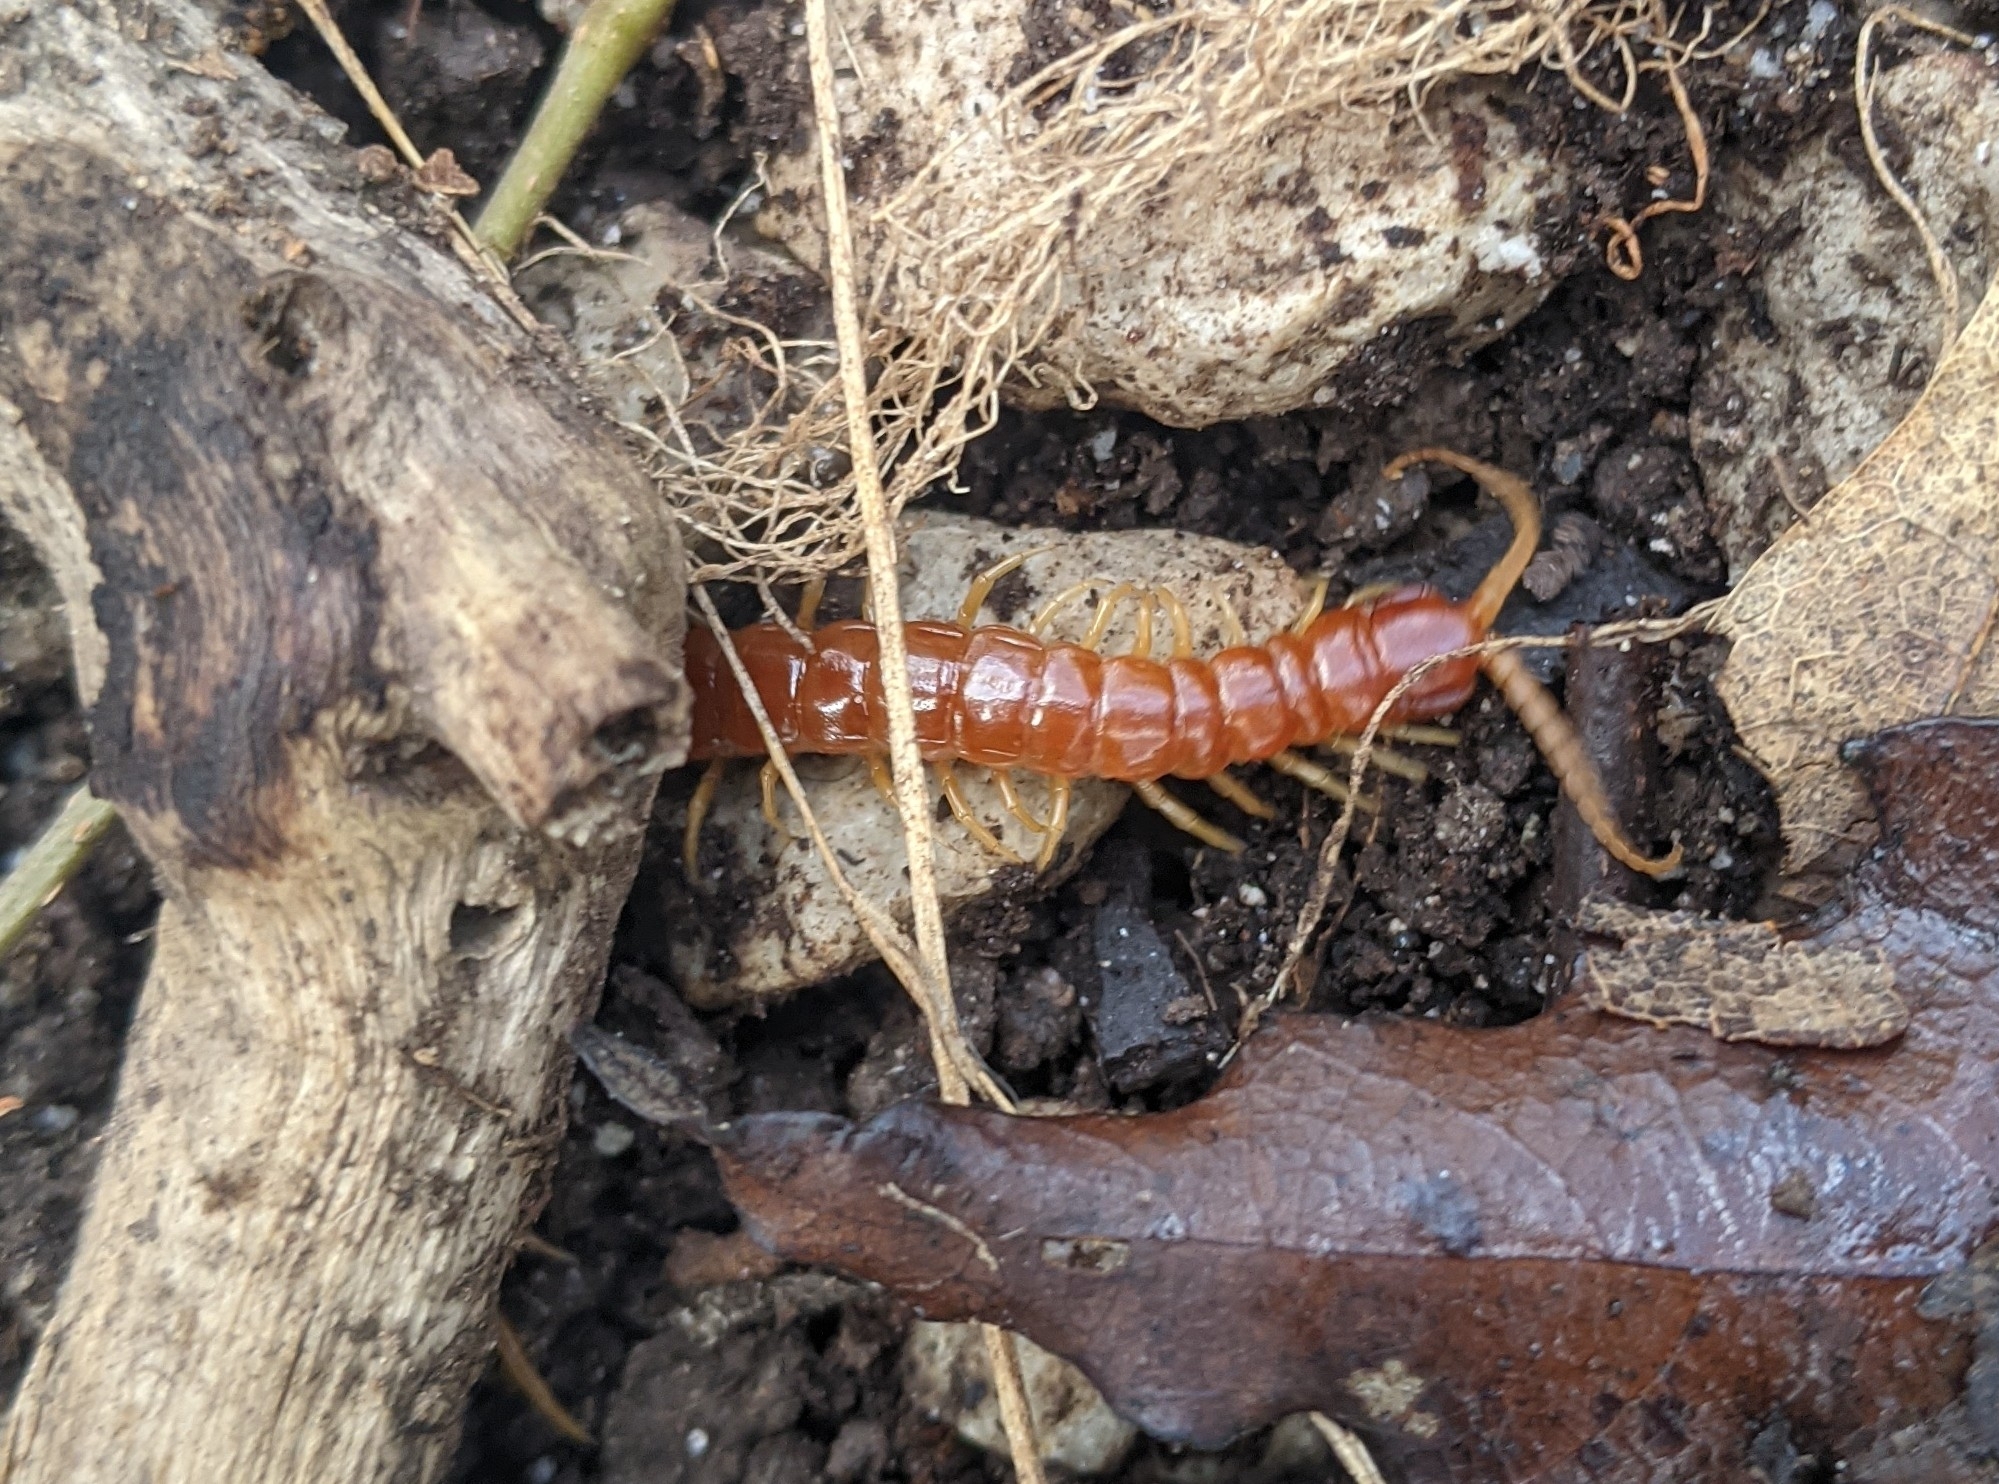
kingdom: Animalia
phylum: Arthropoda
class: Chilopoda
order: Scolopendromorpha
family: Scolopocryptopidae
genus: Scolopocryptops
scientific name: Scolopocryptops sexspinosus
